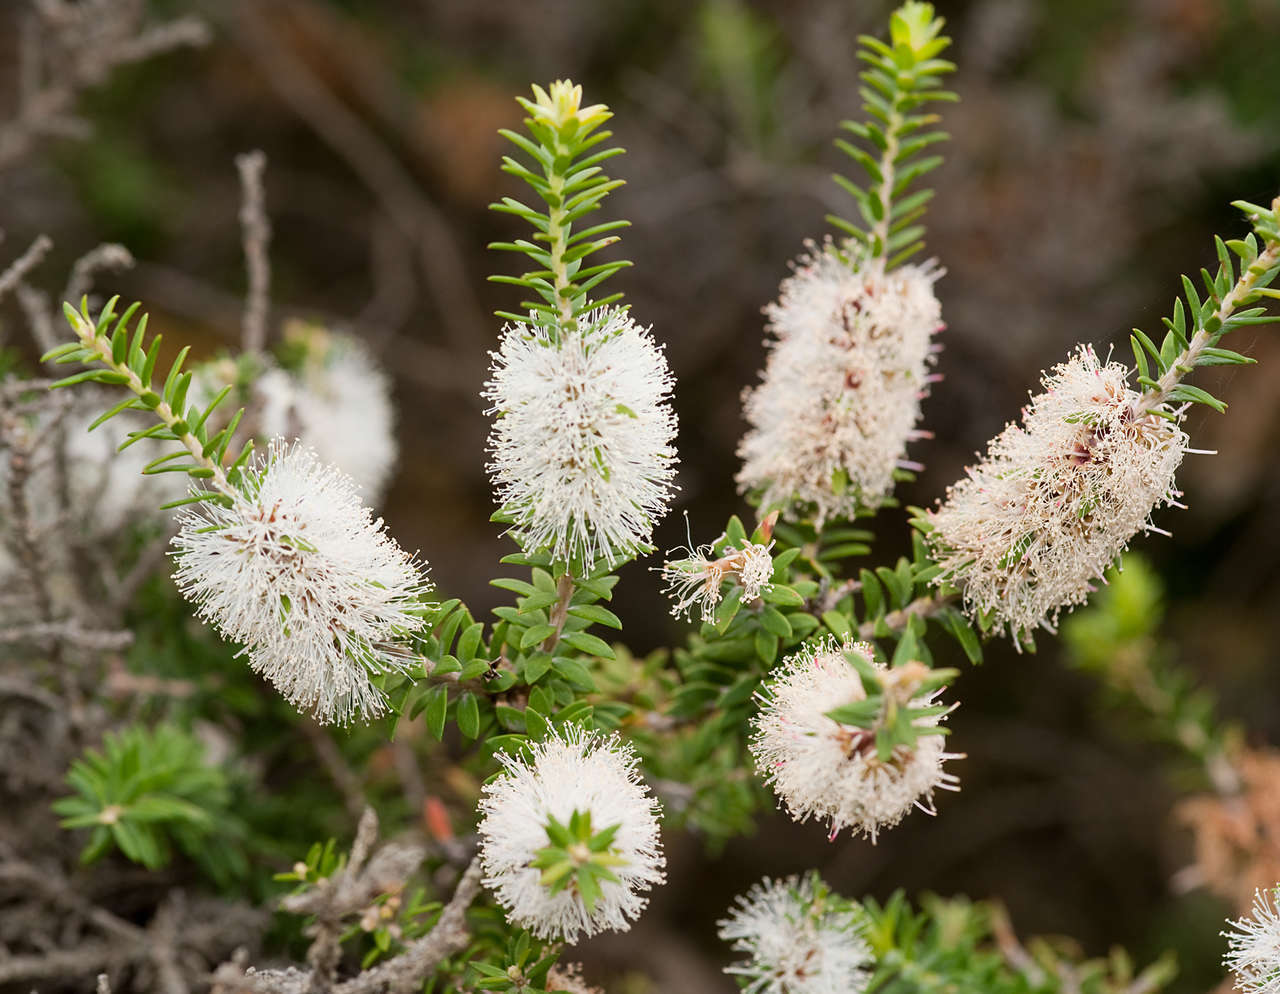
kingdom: Plantae
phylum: Tracheophyta
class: Magnoliopsida
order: Myrtales
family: Myrtaceae
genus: Melaleuca
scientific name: Melaleuca lanceolata
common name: Rottnest island teatree
